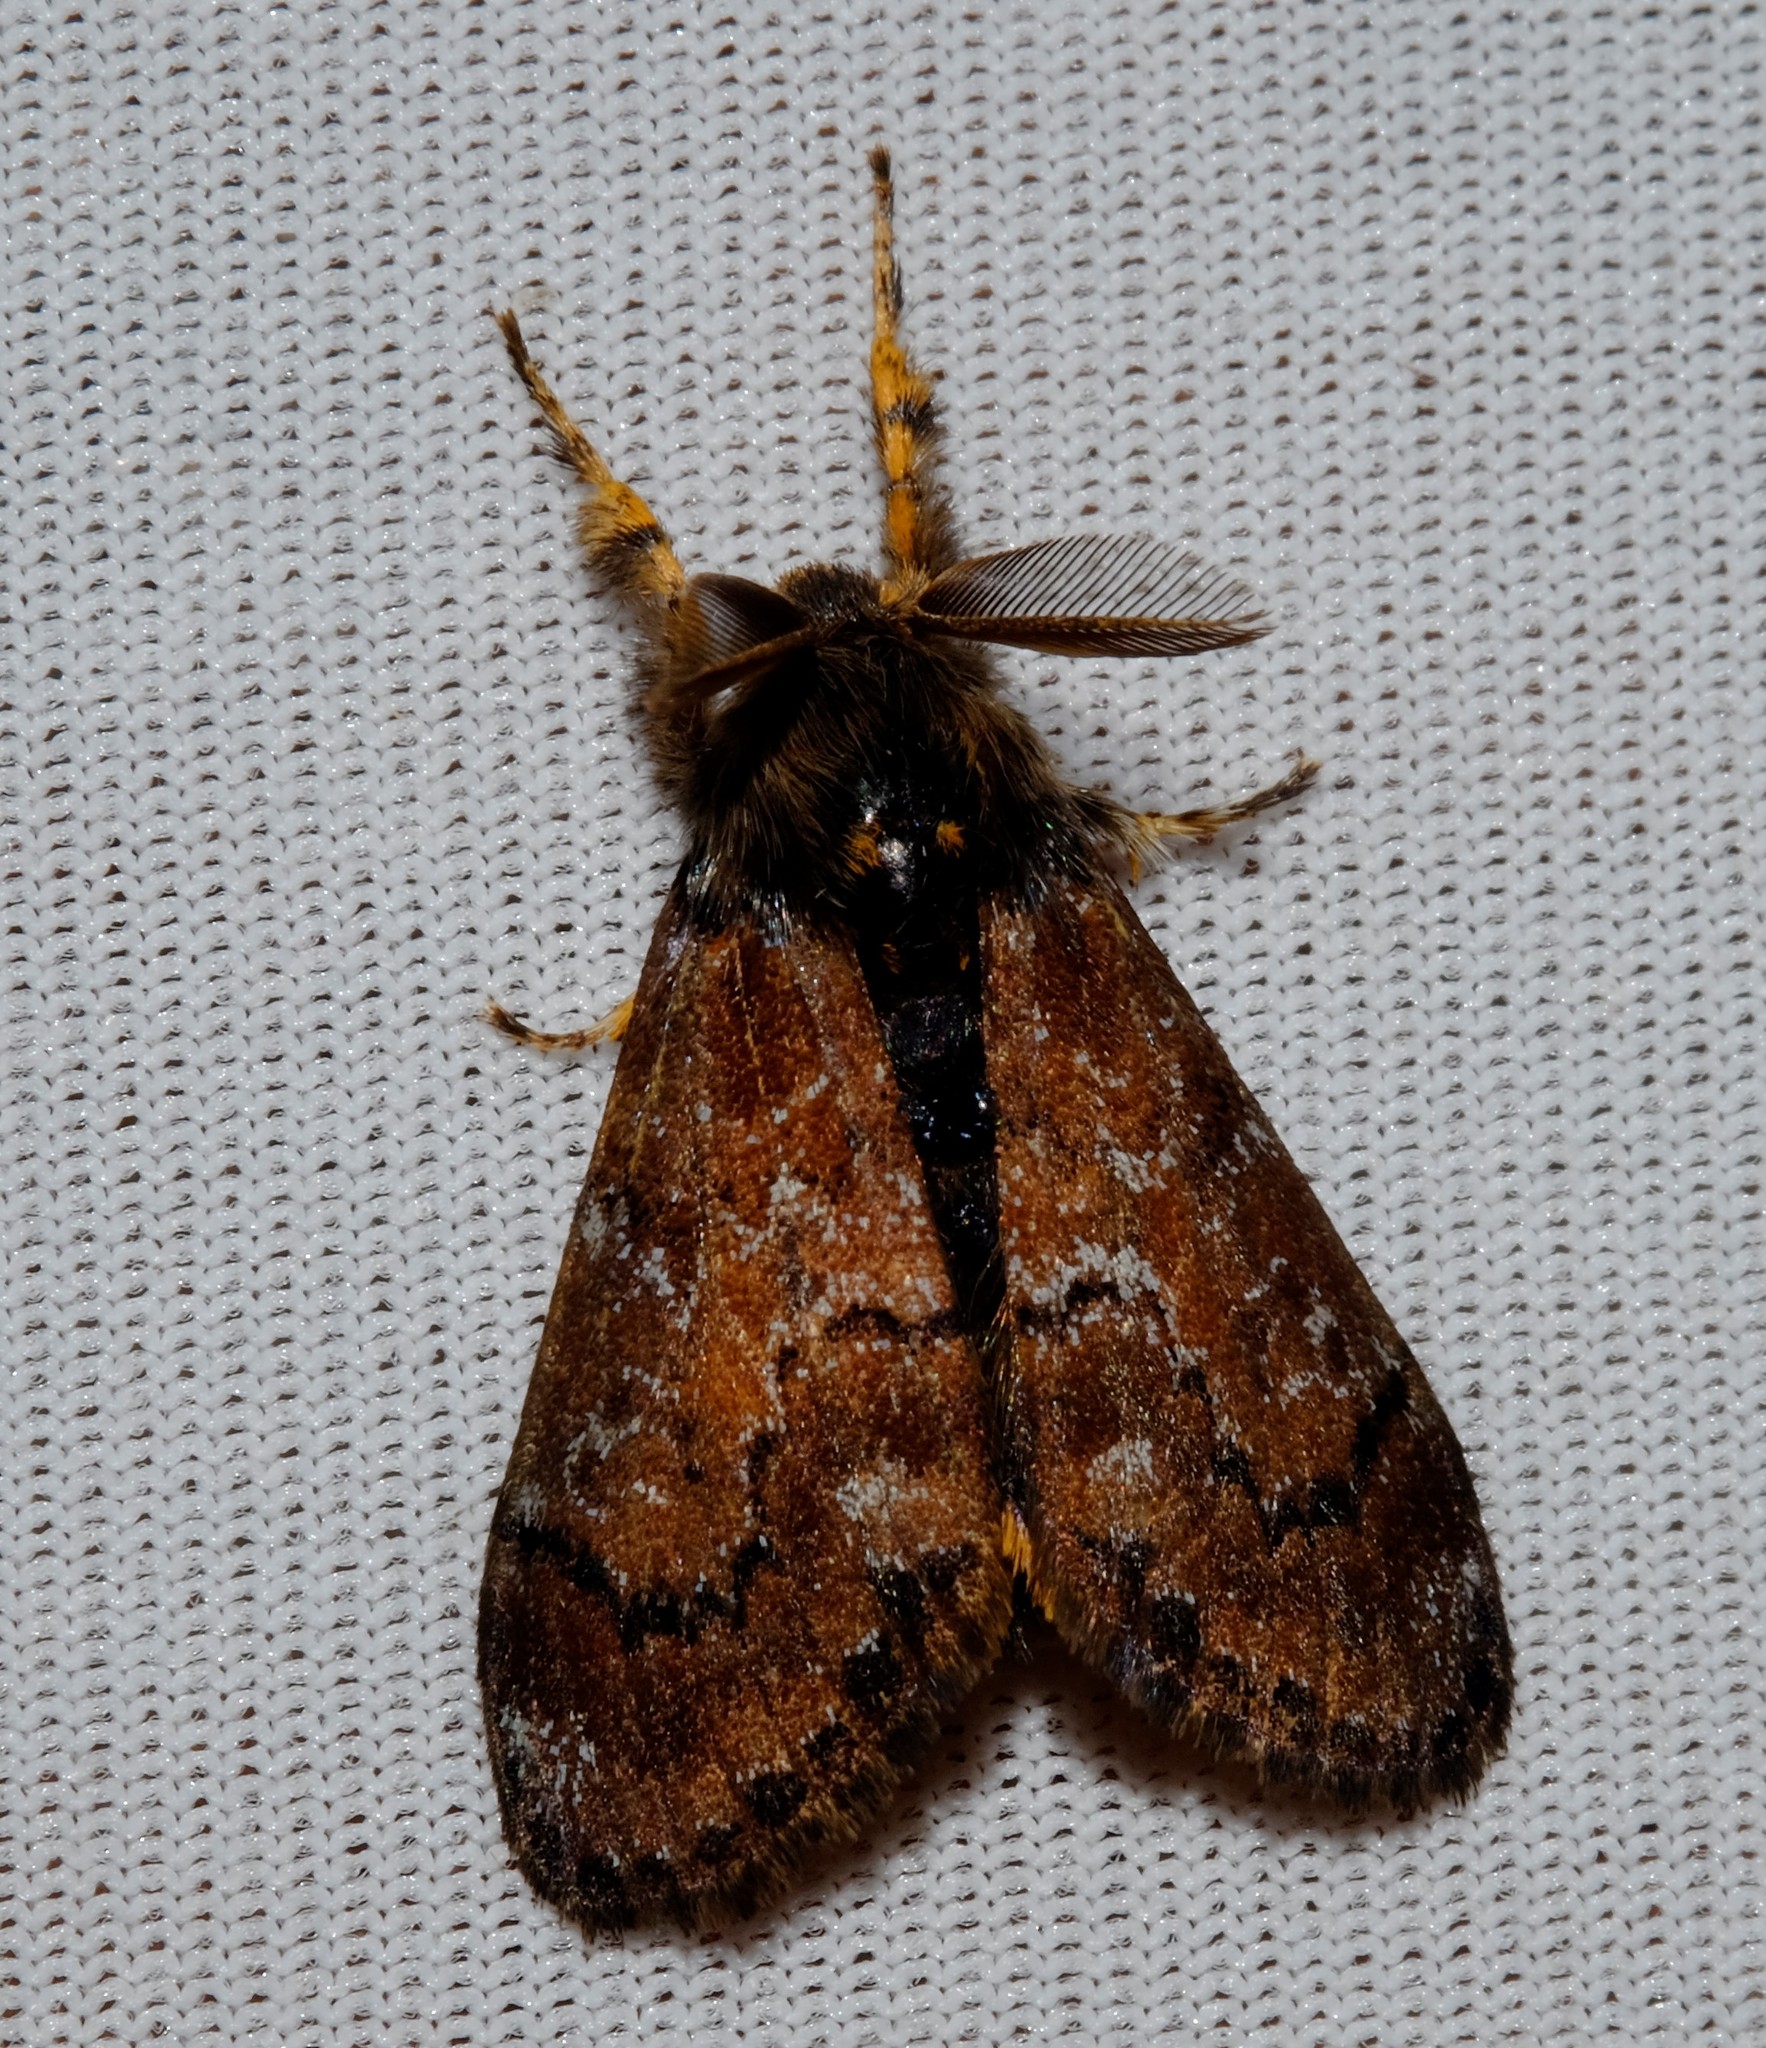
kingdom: Animalia
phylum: Arthropoda
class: Insecta
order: Lepidoptera
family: Erebidae
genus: Orgyia
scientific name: Orgyia
